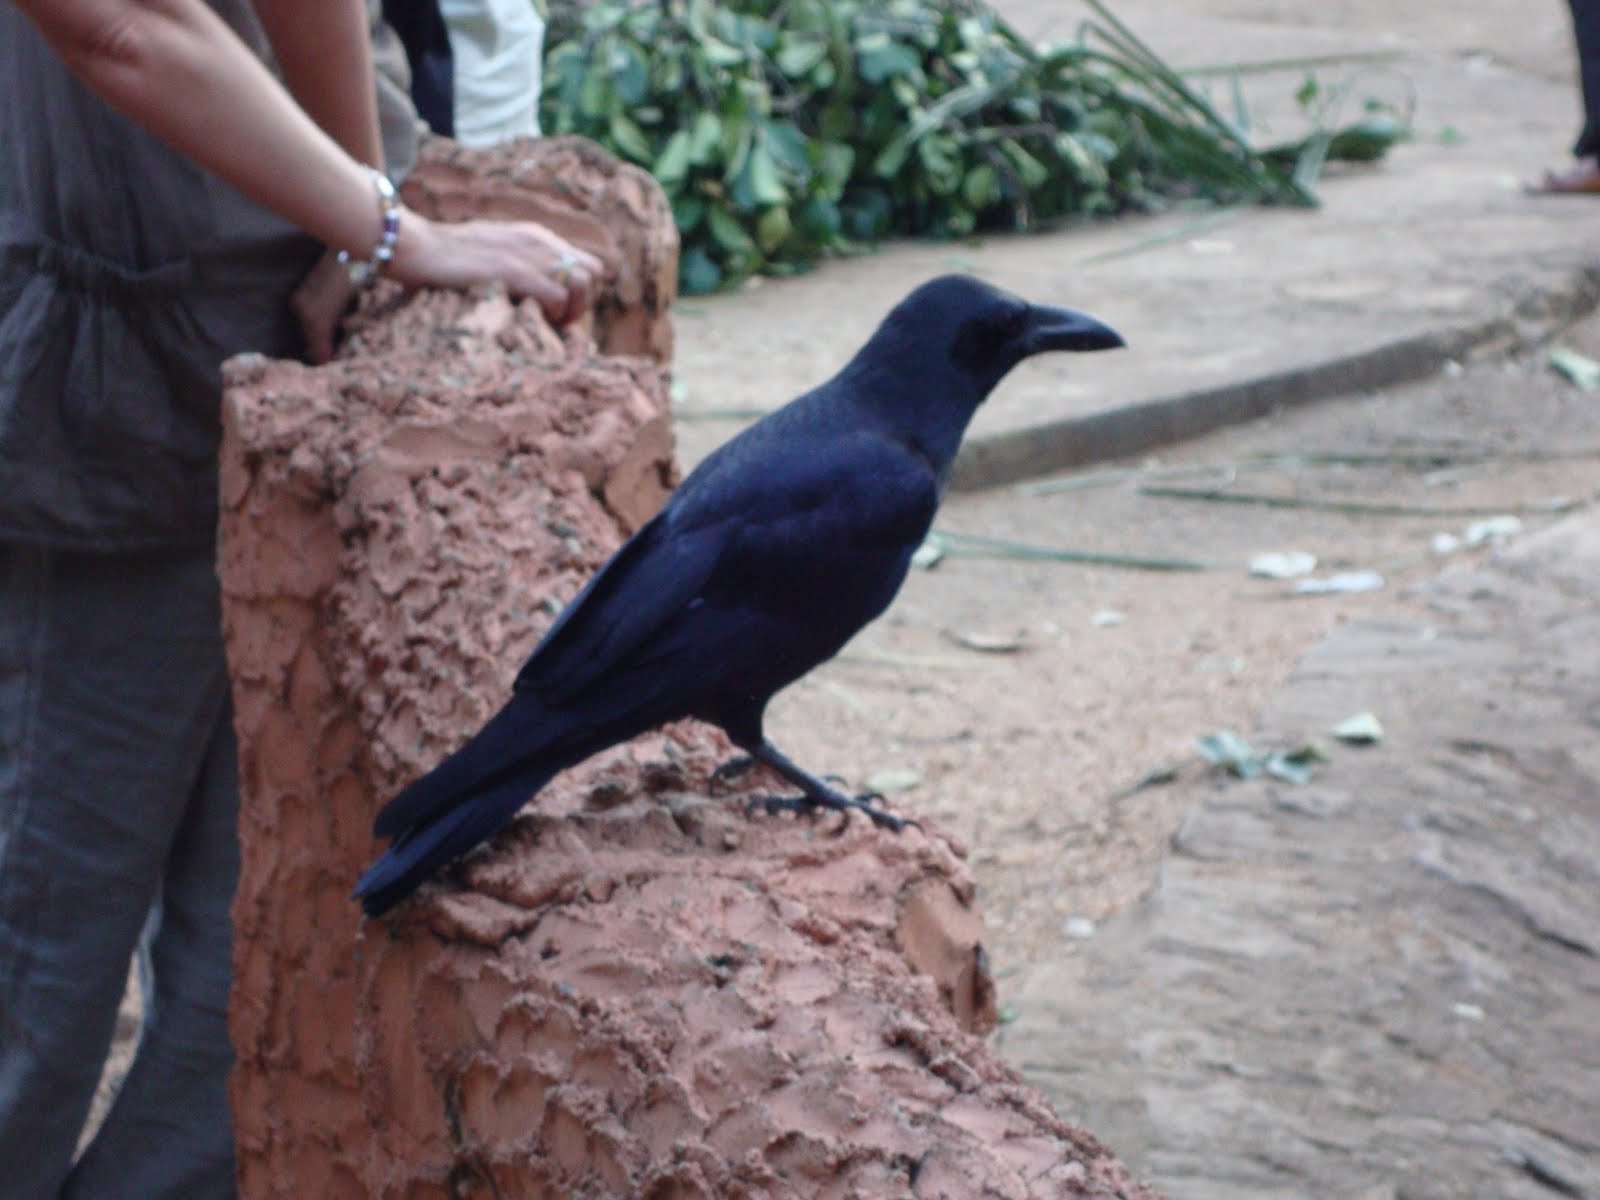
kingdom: Animalia
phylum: Chordata
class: Aves
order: Passeriformes
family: Corvidae
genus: Corvus
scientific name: Corvus macrorhynchos
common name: Large-billed crow
